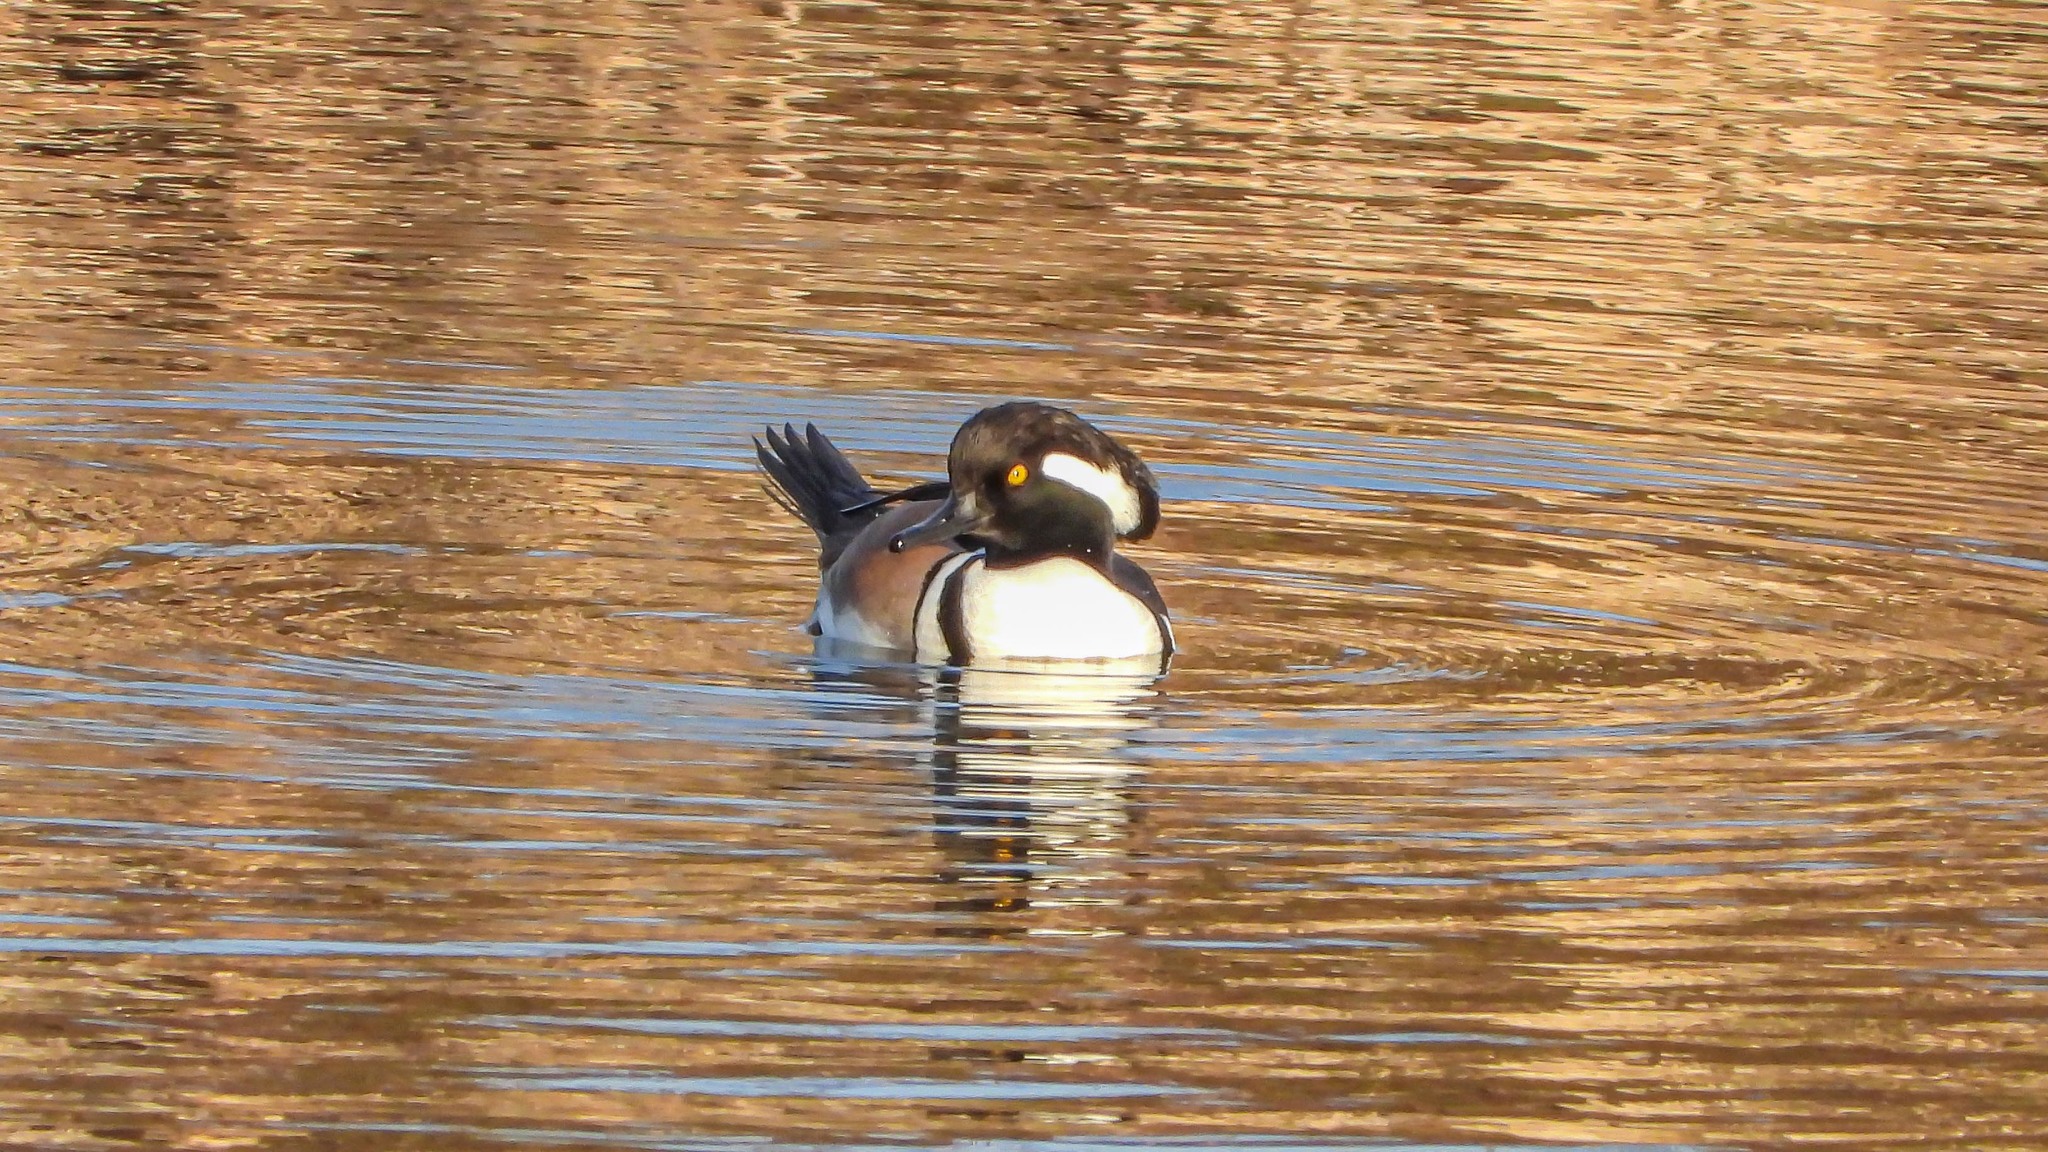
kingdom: Animalia
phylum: Chordata
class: Aves
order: Anseriformes
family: Anatidae
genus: Lophodytes
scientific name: Lophodytes cucullatus
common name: Hooded merganser
